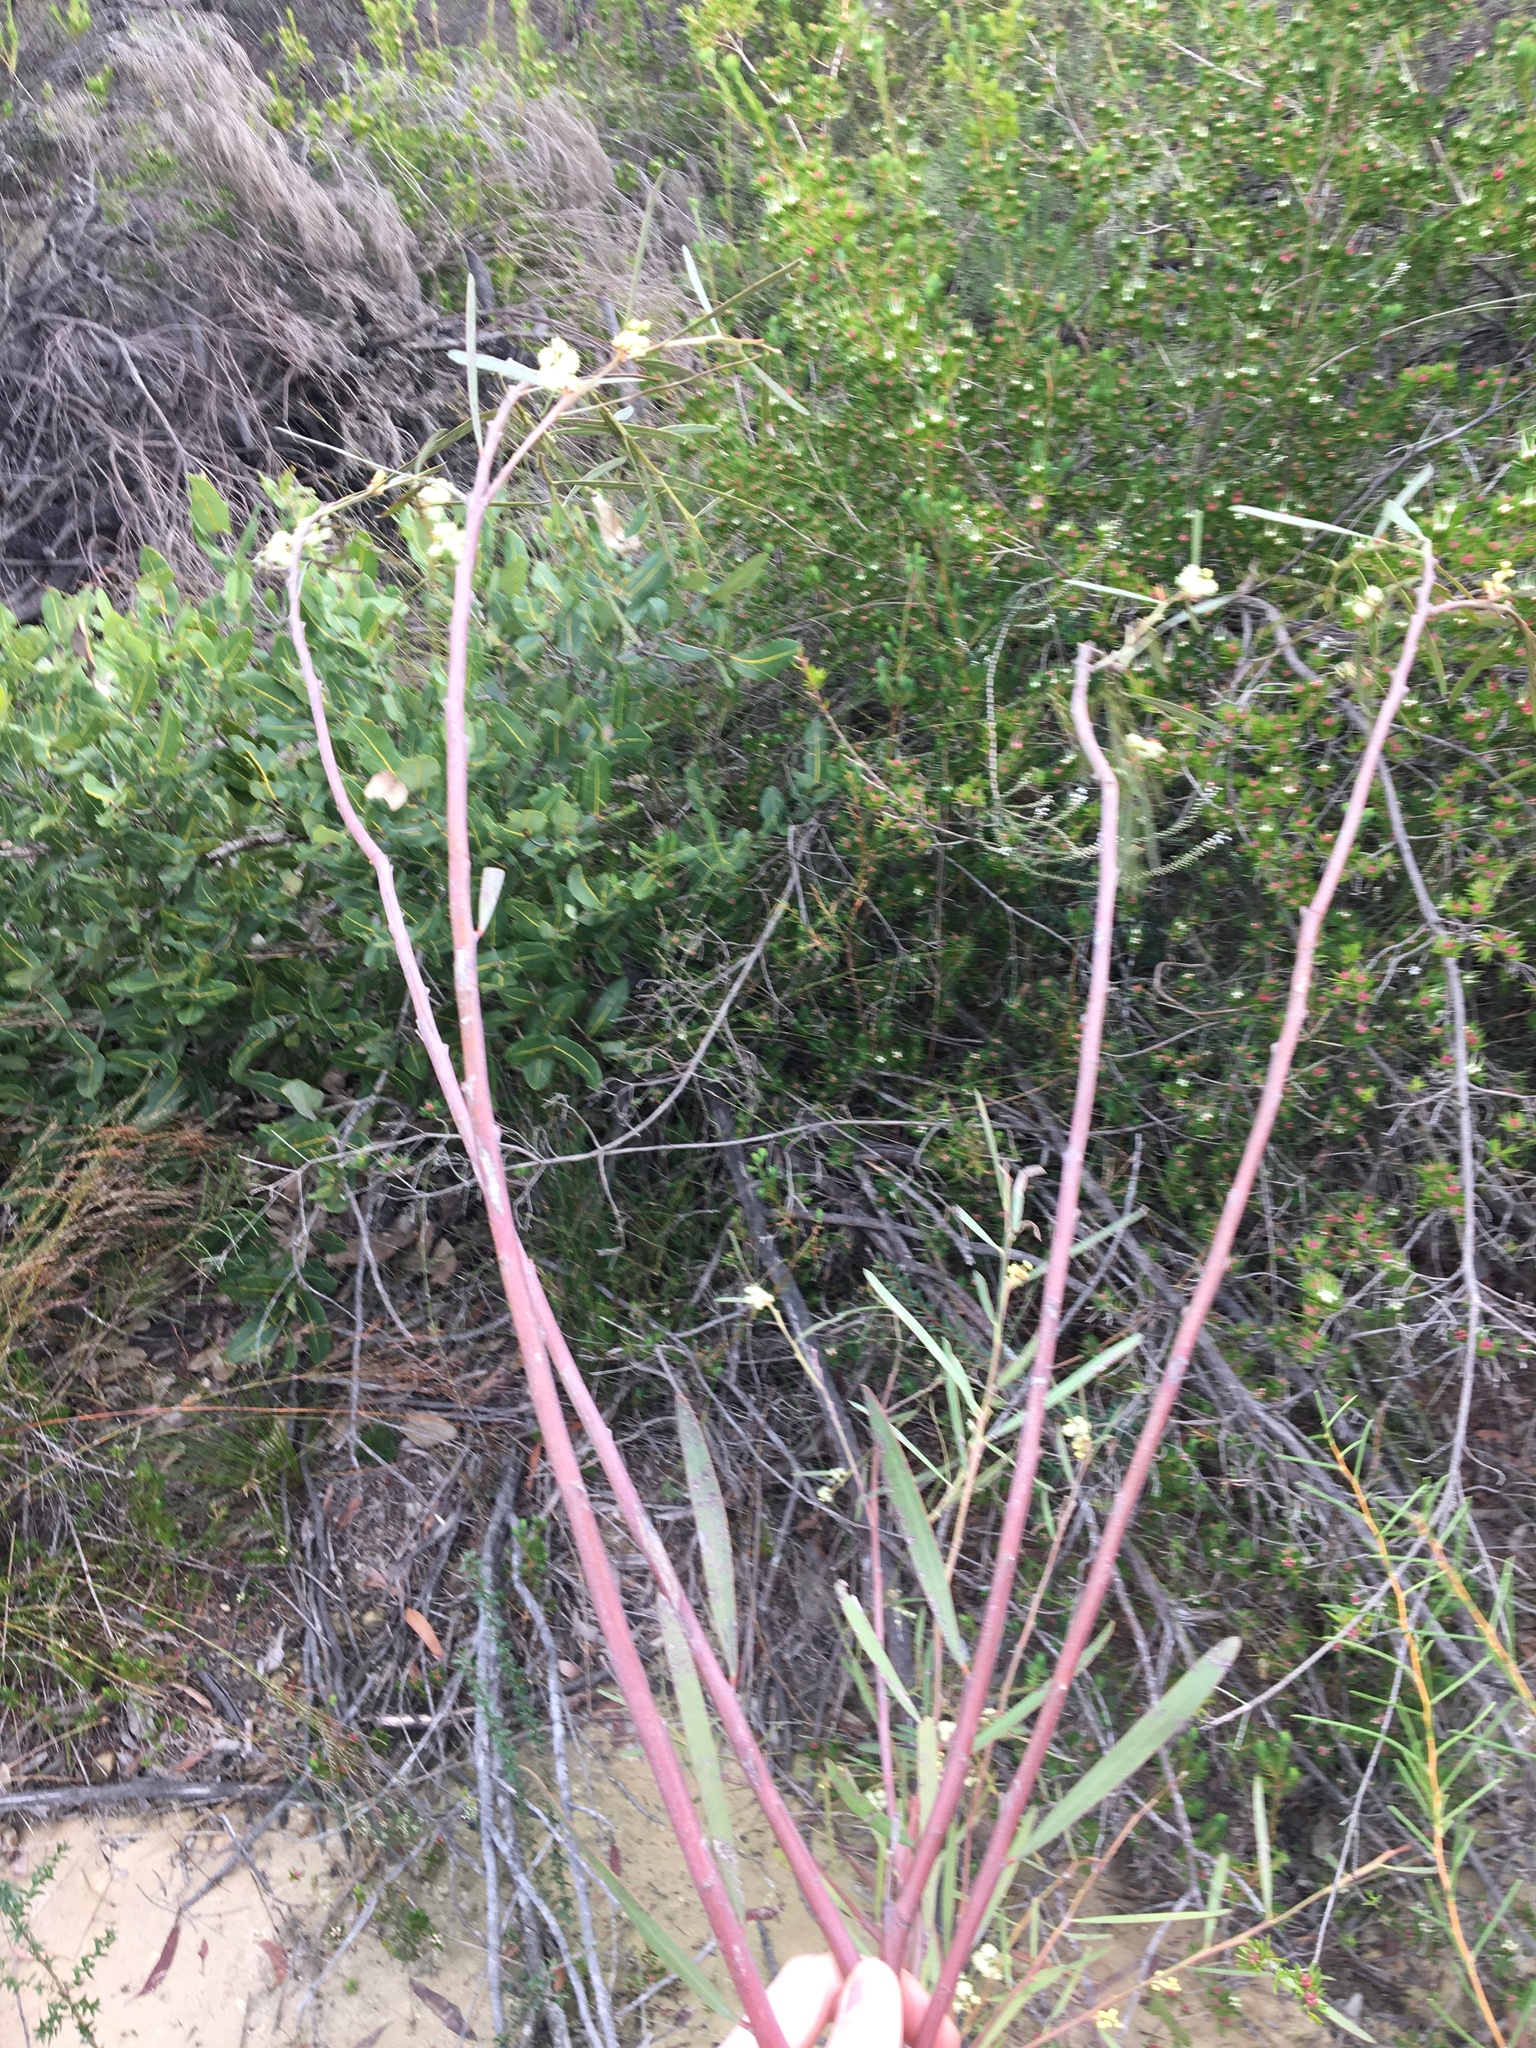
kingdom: Plantae
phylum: Tracheophyta
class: Magnoliopsida
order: Fabales
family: Fabaceae
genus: Acacia
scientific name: Acacia suaveolens
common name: Sweet acacia
